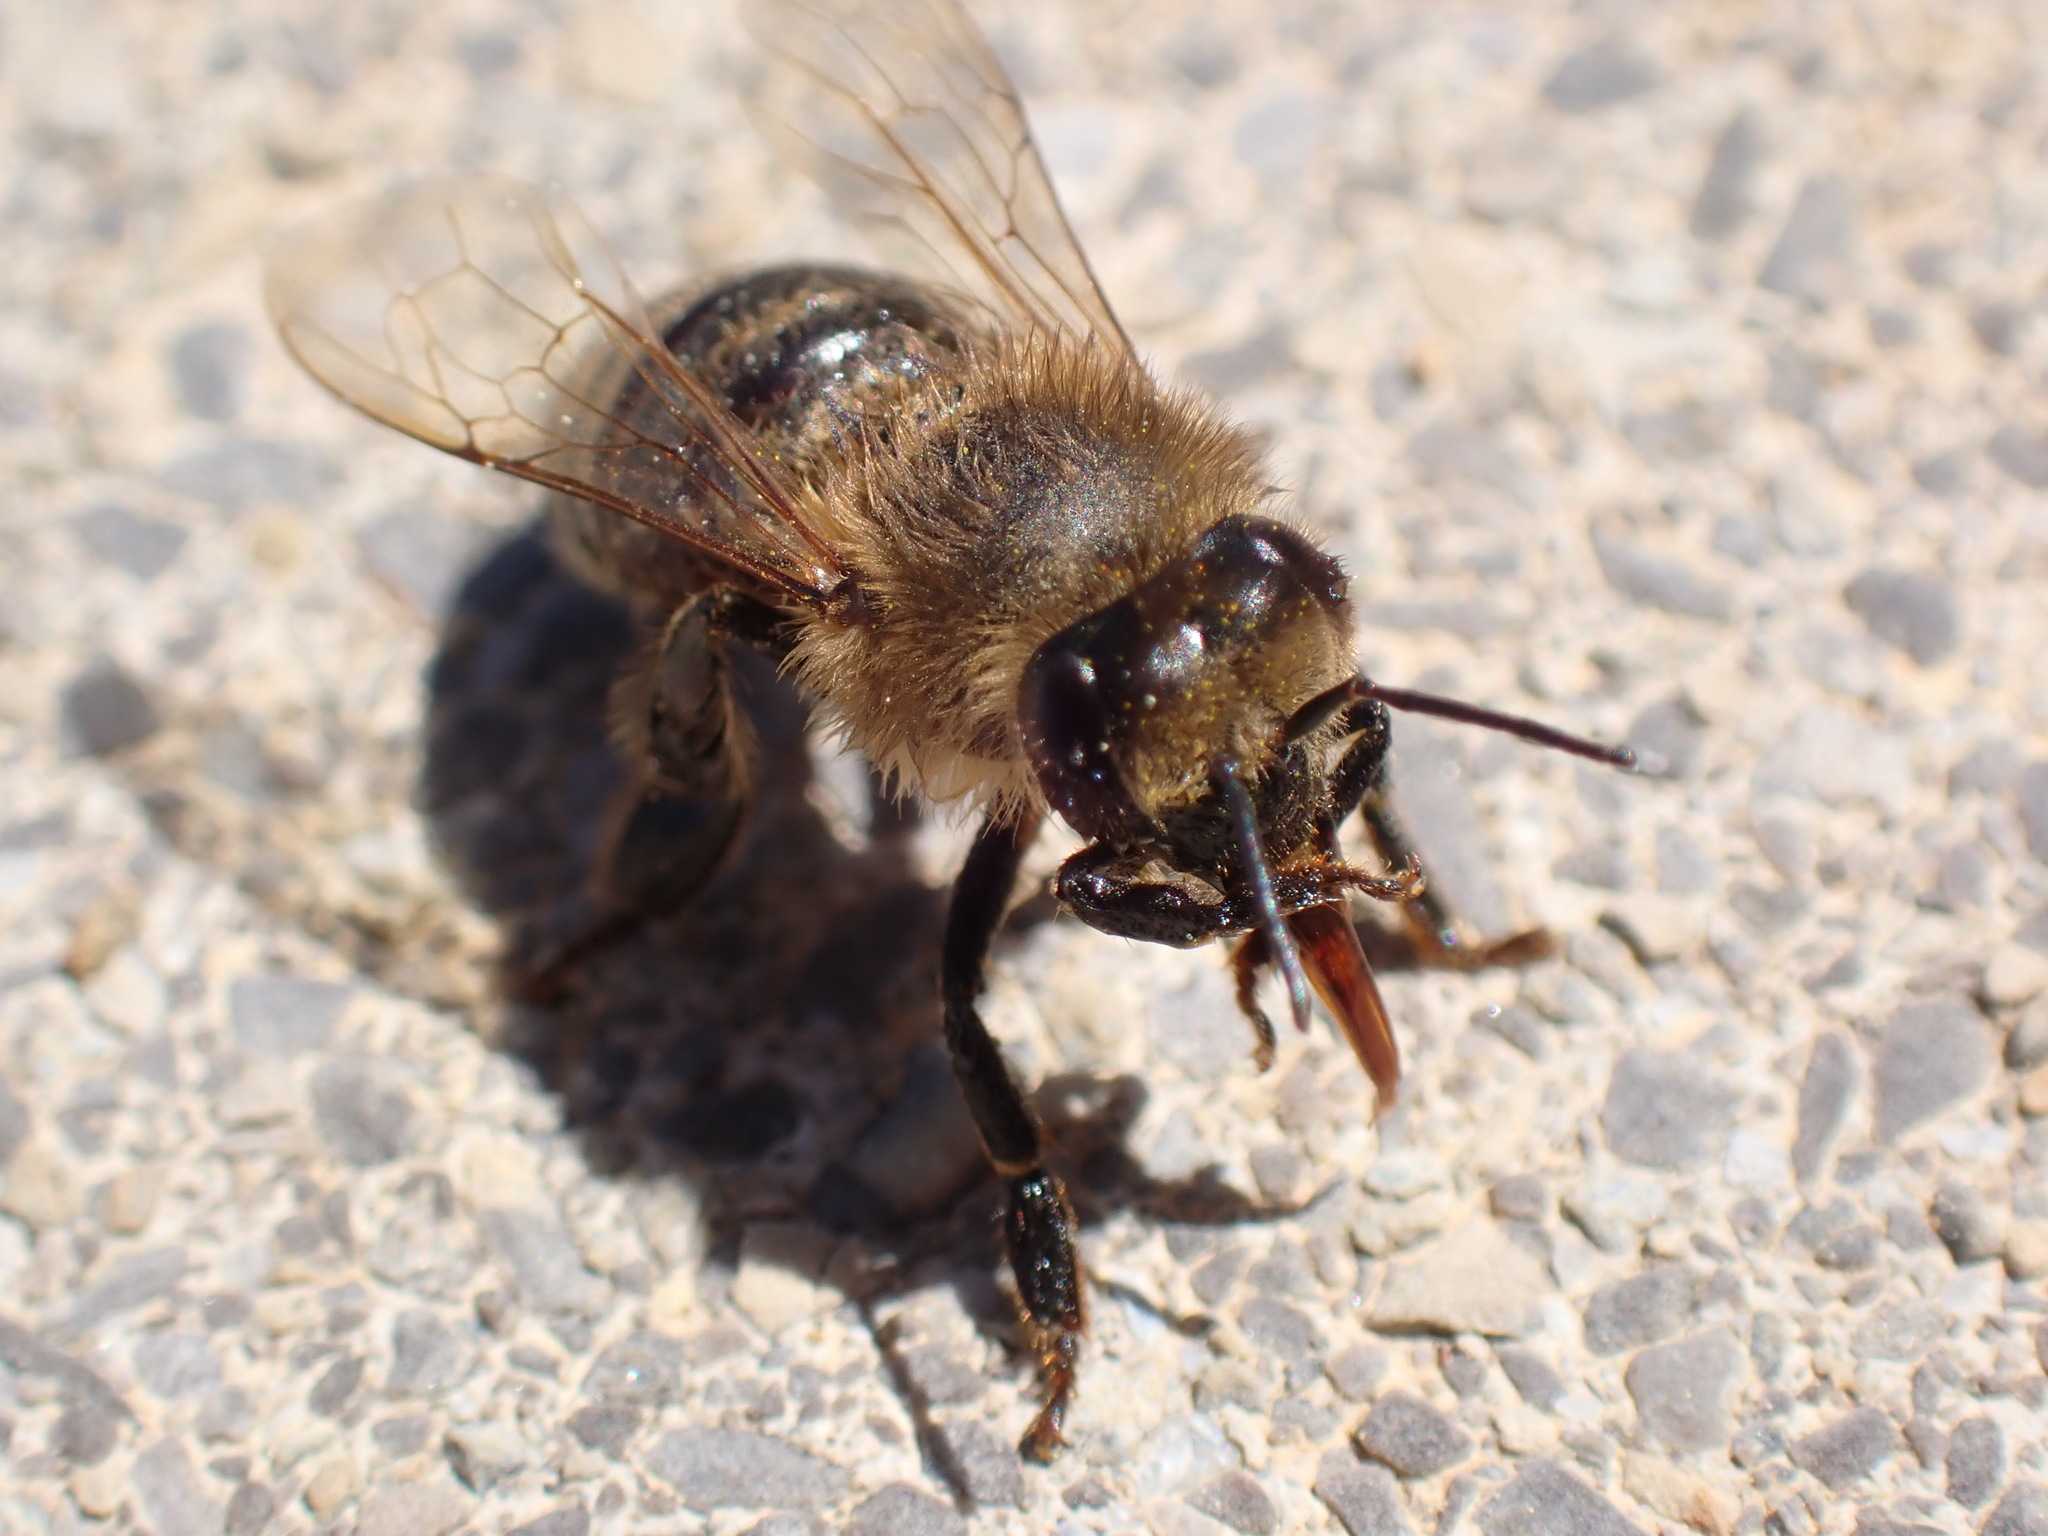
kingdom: Animalia
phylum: Arthropoda
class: Insecta
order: Hymenoptera
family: Apidae
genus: Apis
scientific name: Apis mellifera
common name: Honey bee
